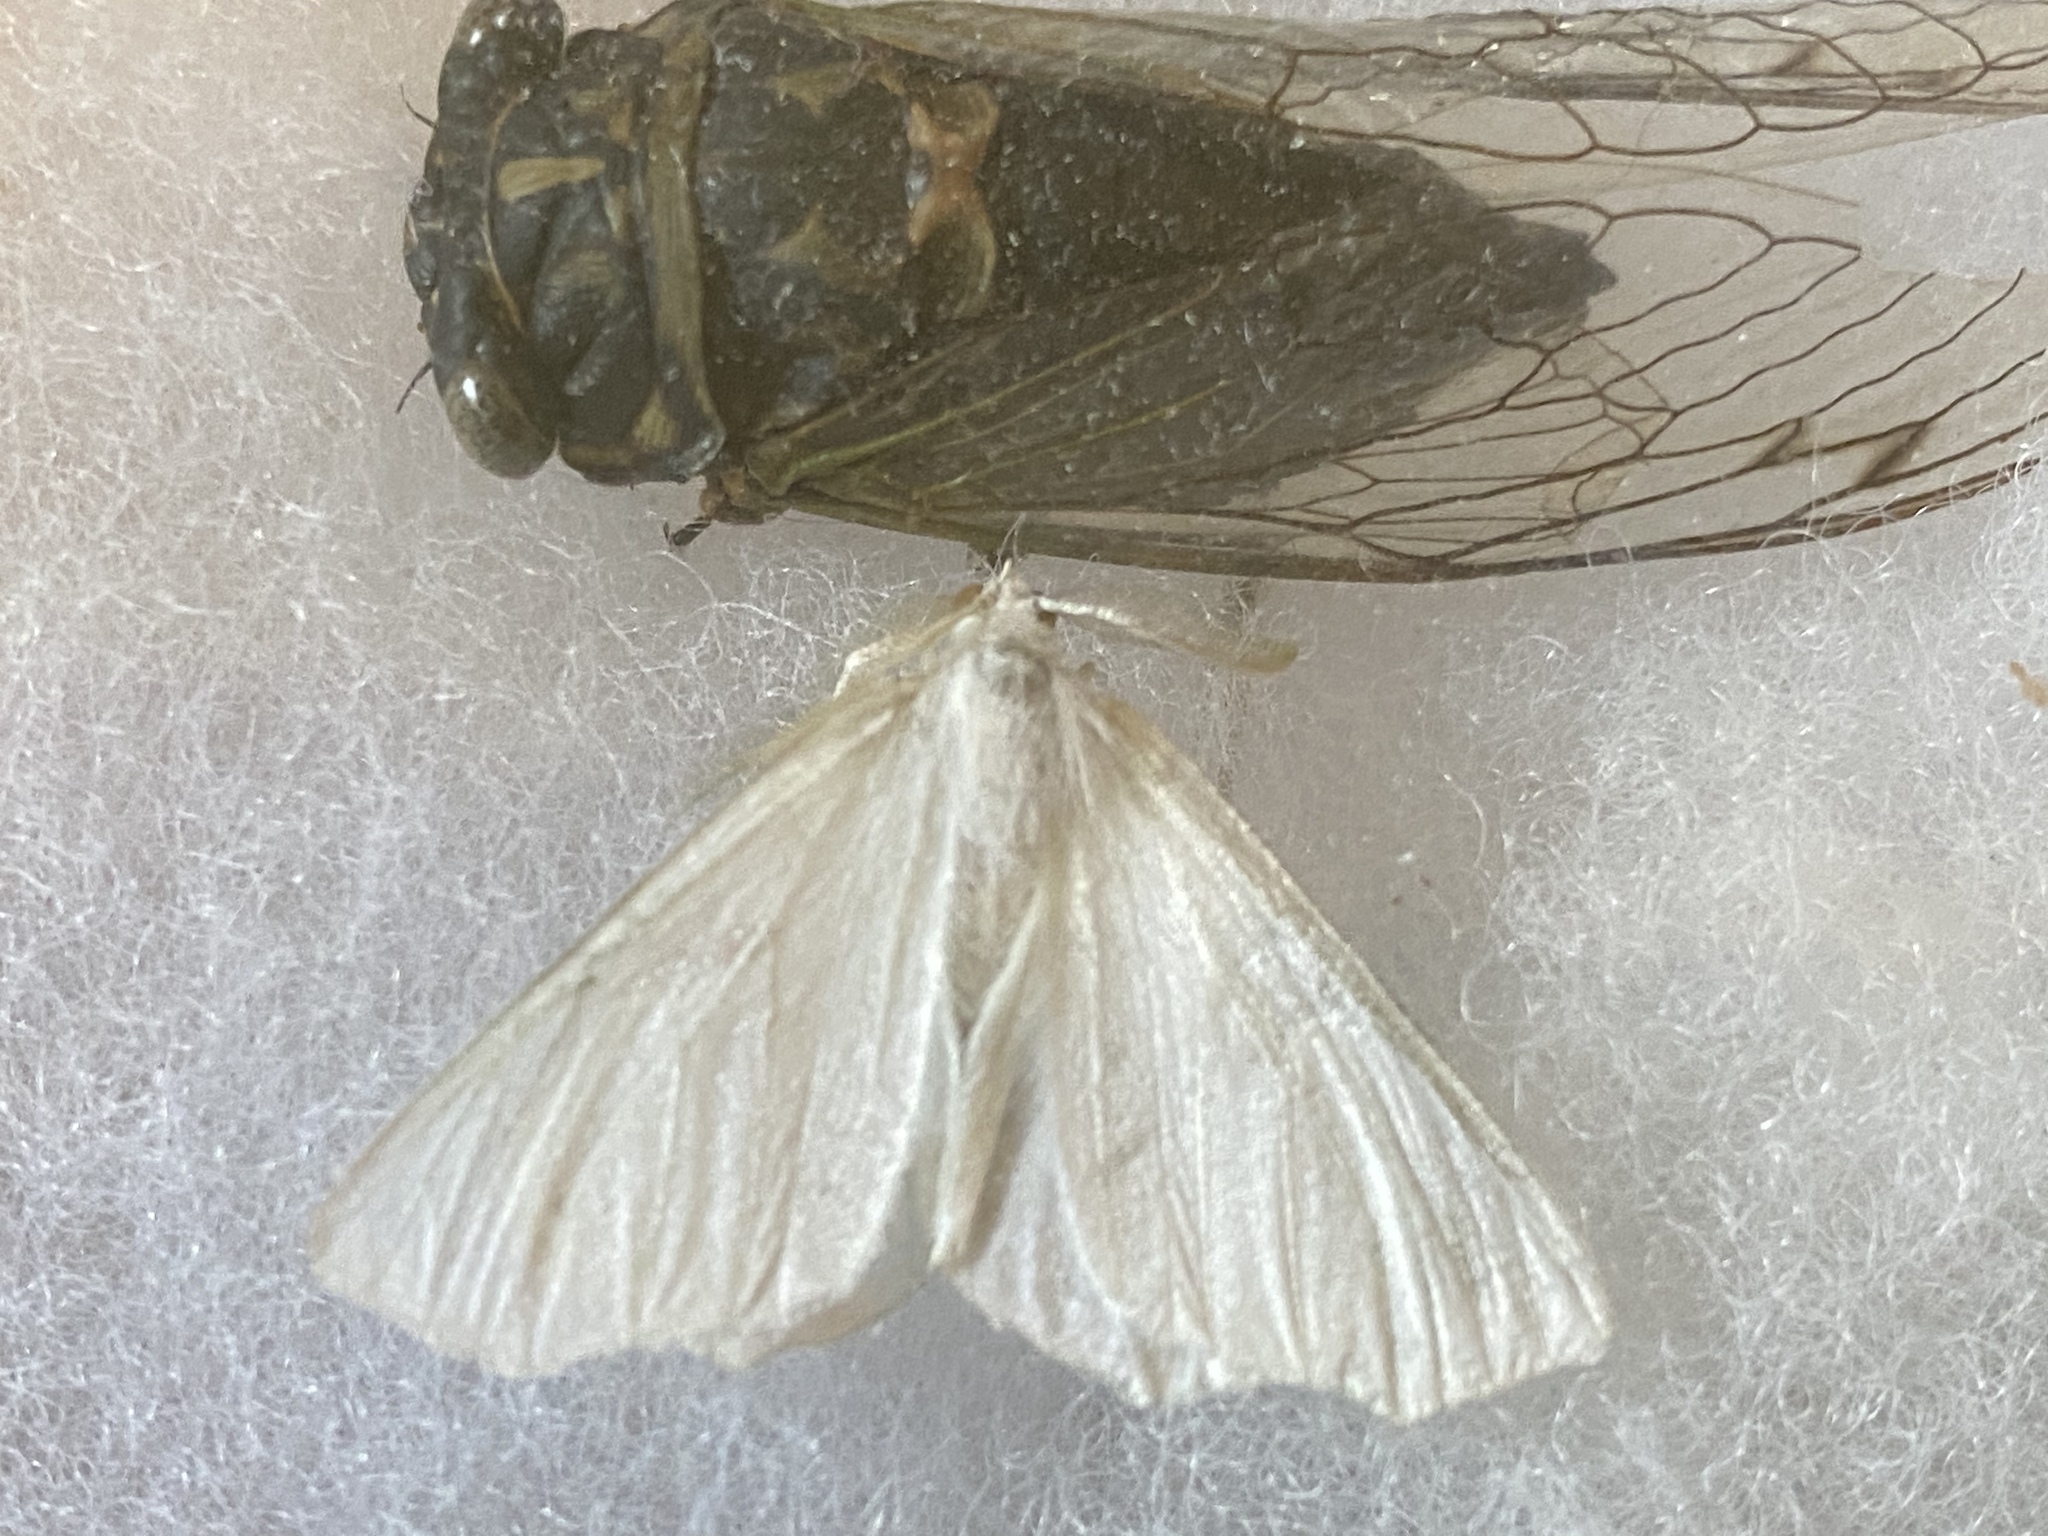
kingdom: Animalia
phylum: Arthropoda
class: Insecta
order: Lepidoptera
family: Geometridae
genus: Ennomos
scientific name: Ennomos subsignaria
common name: Elm spanworm
